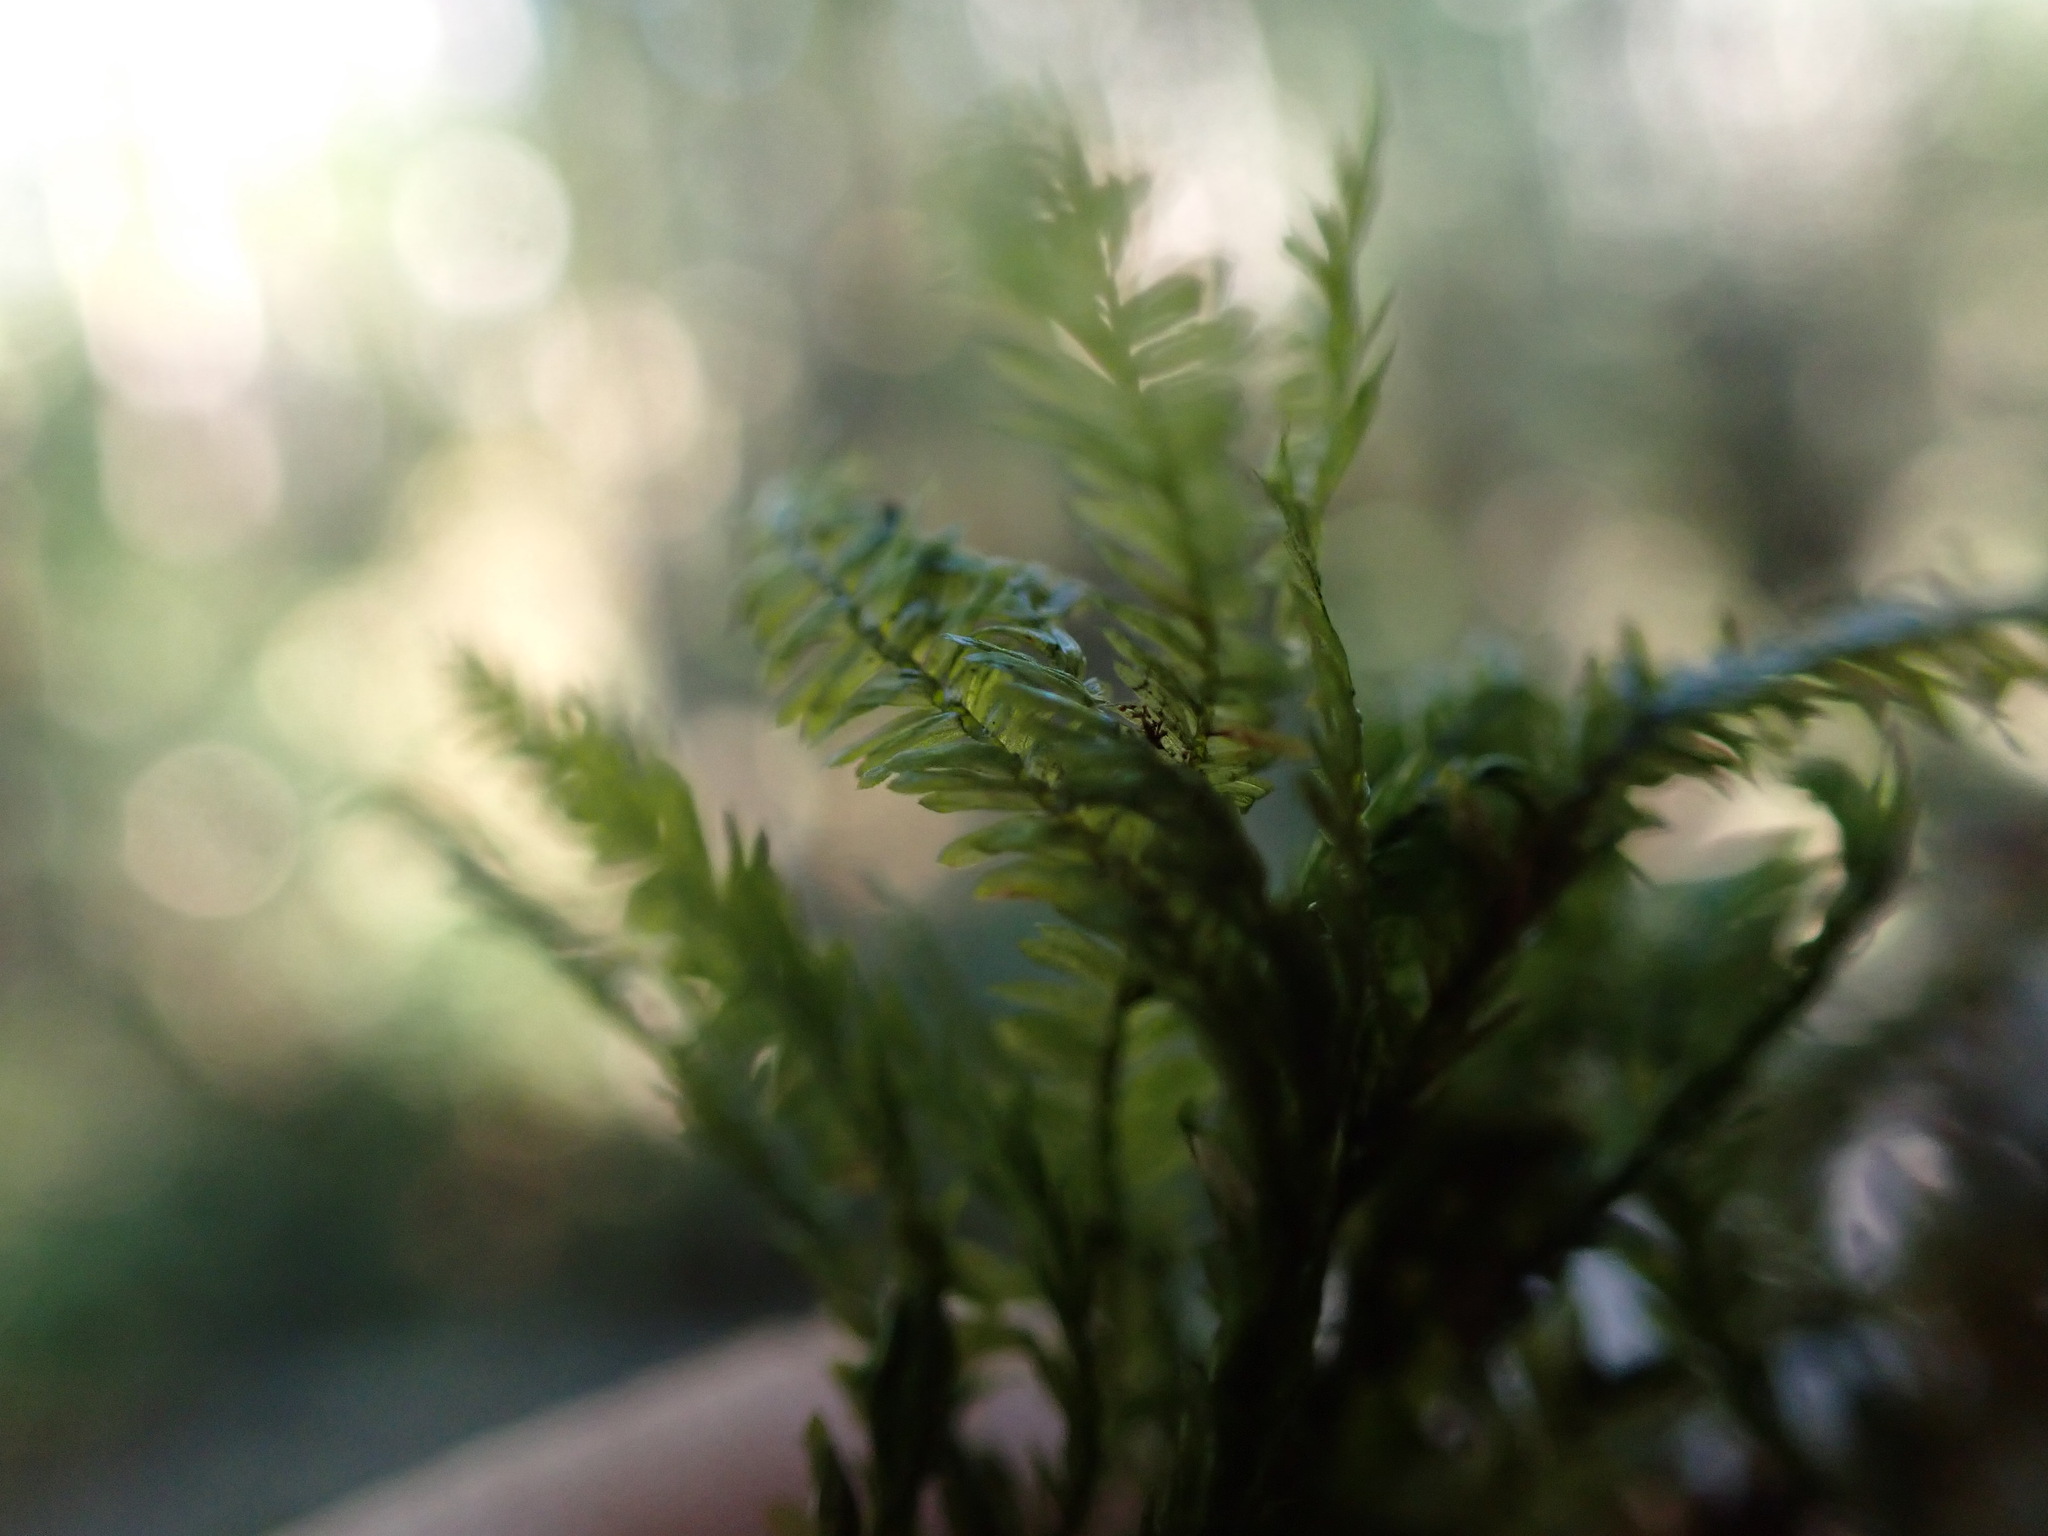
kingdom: Plantae
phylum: Bryophyta
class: Bryopsida
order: Hypnales
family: Neckeraceae
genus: Dannorrisia
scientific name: Dannorrisia bigelovii
